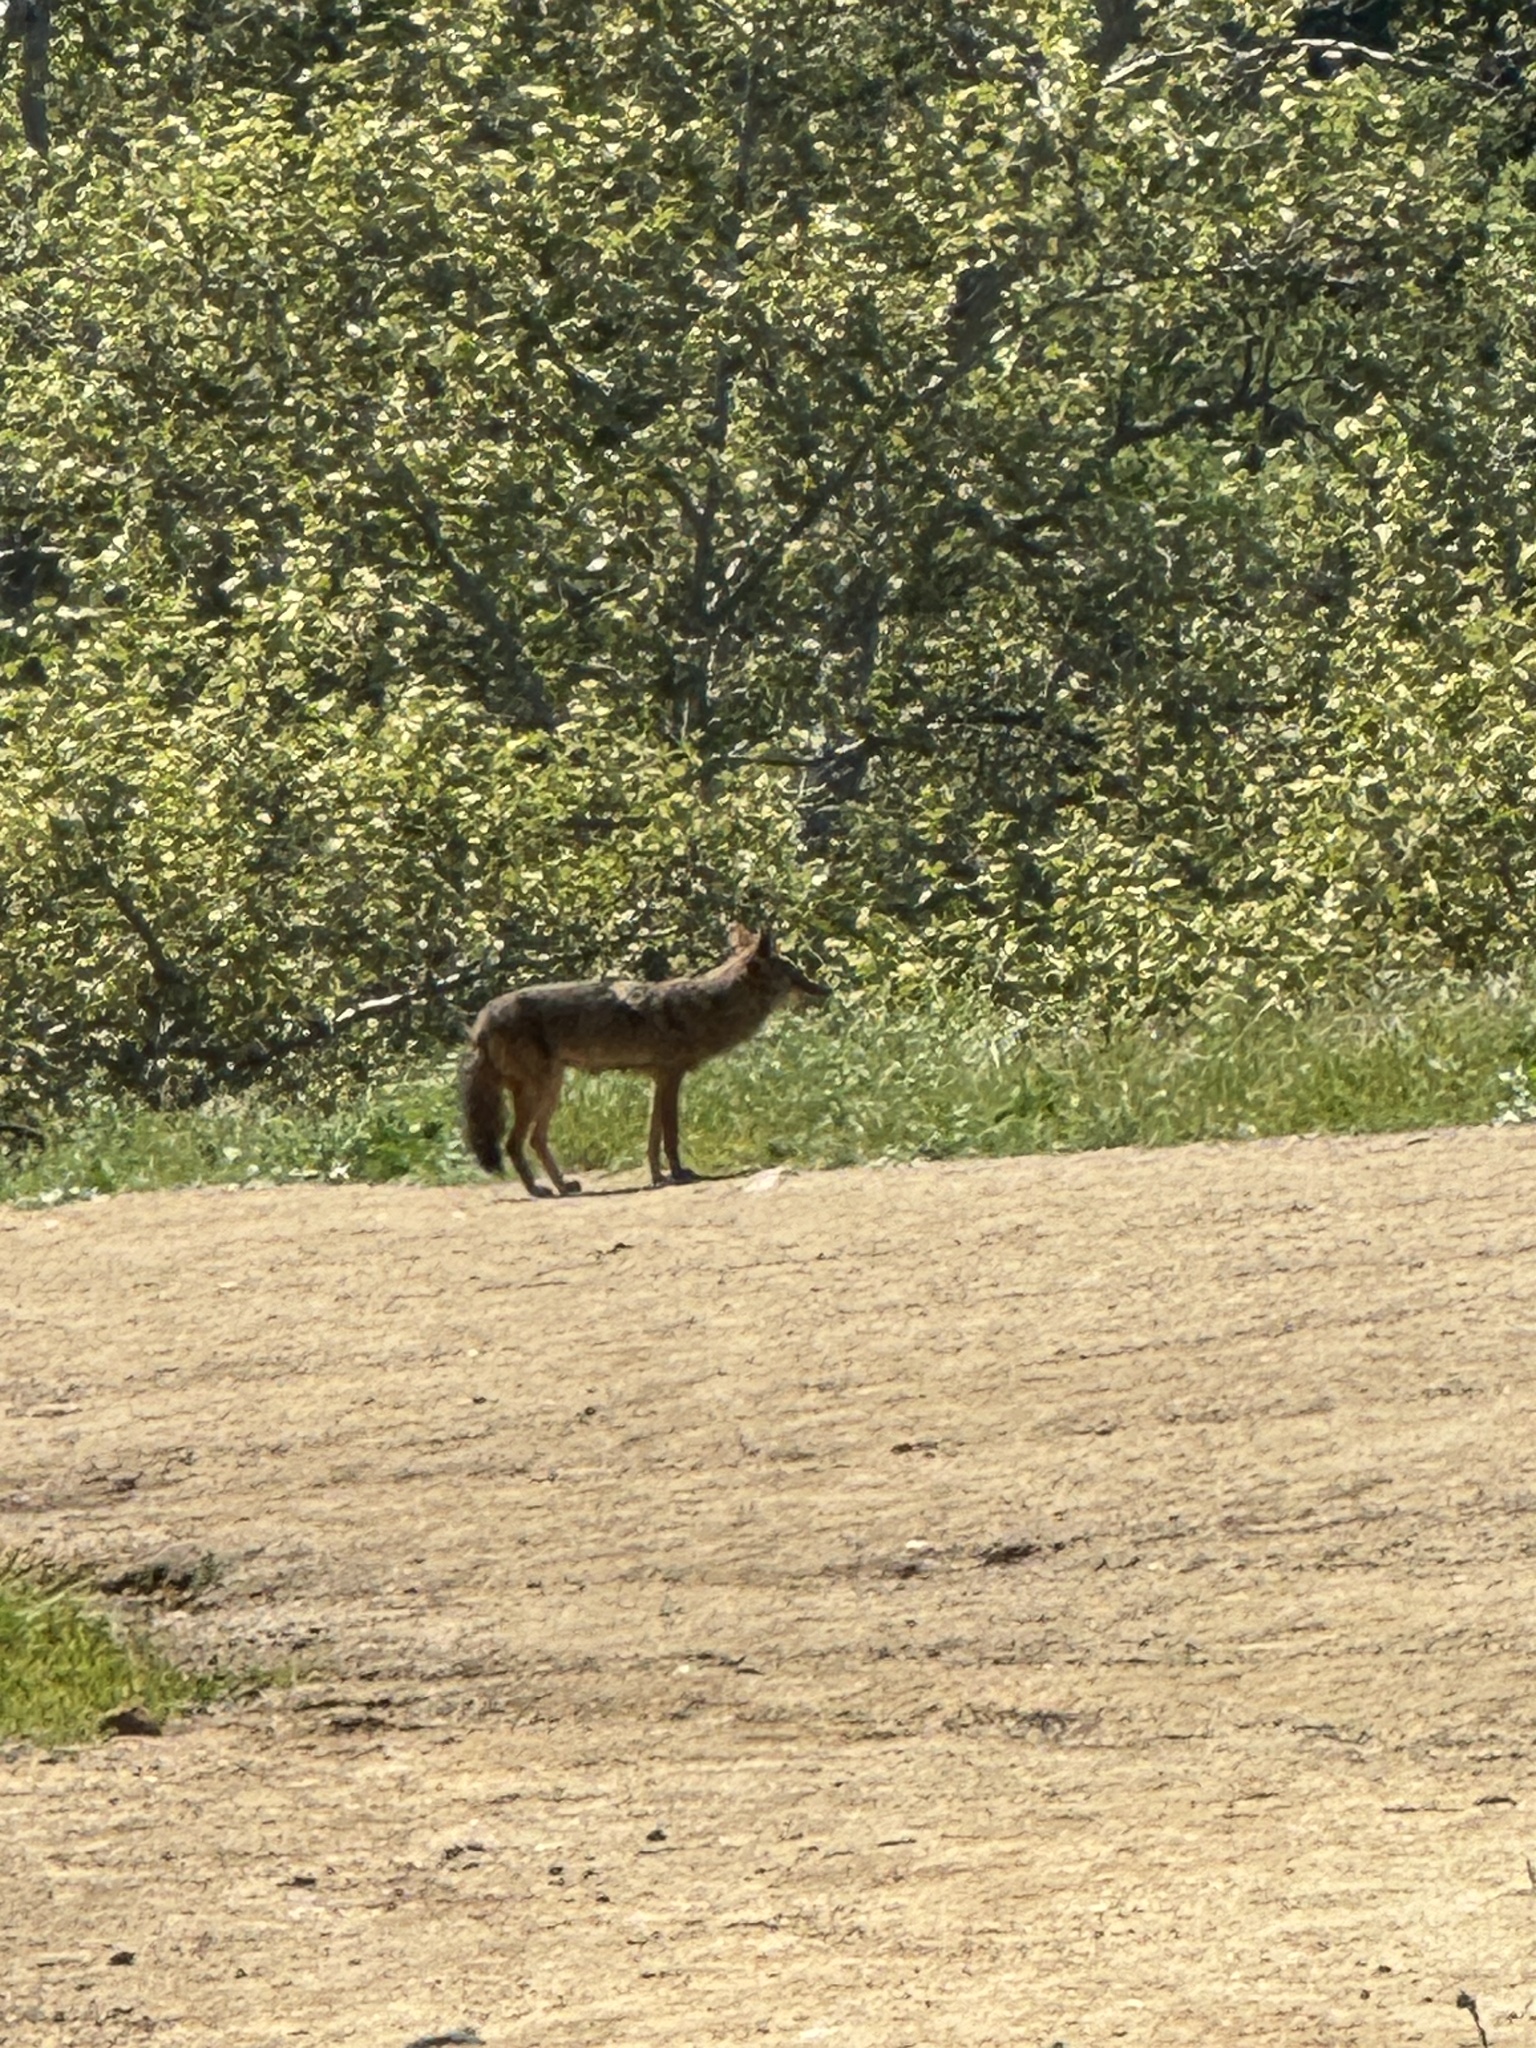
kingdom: Animalia
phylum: Chordata
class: Mammalia
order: Carnivora
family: Canidae
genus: Canis
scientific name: Canis latrans
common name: Coyote
